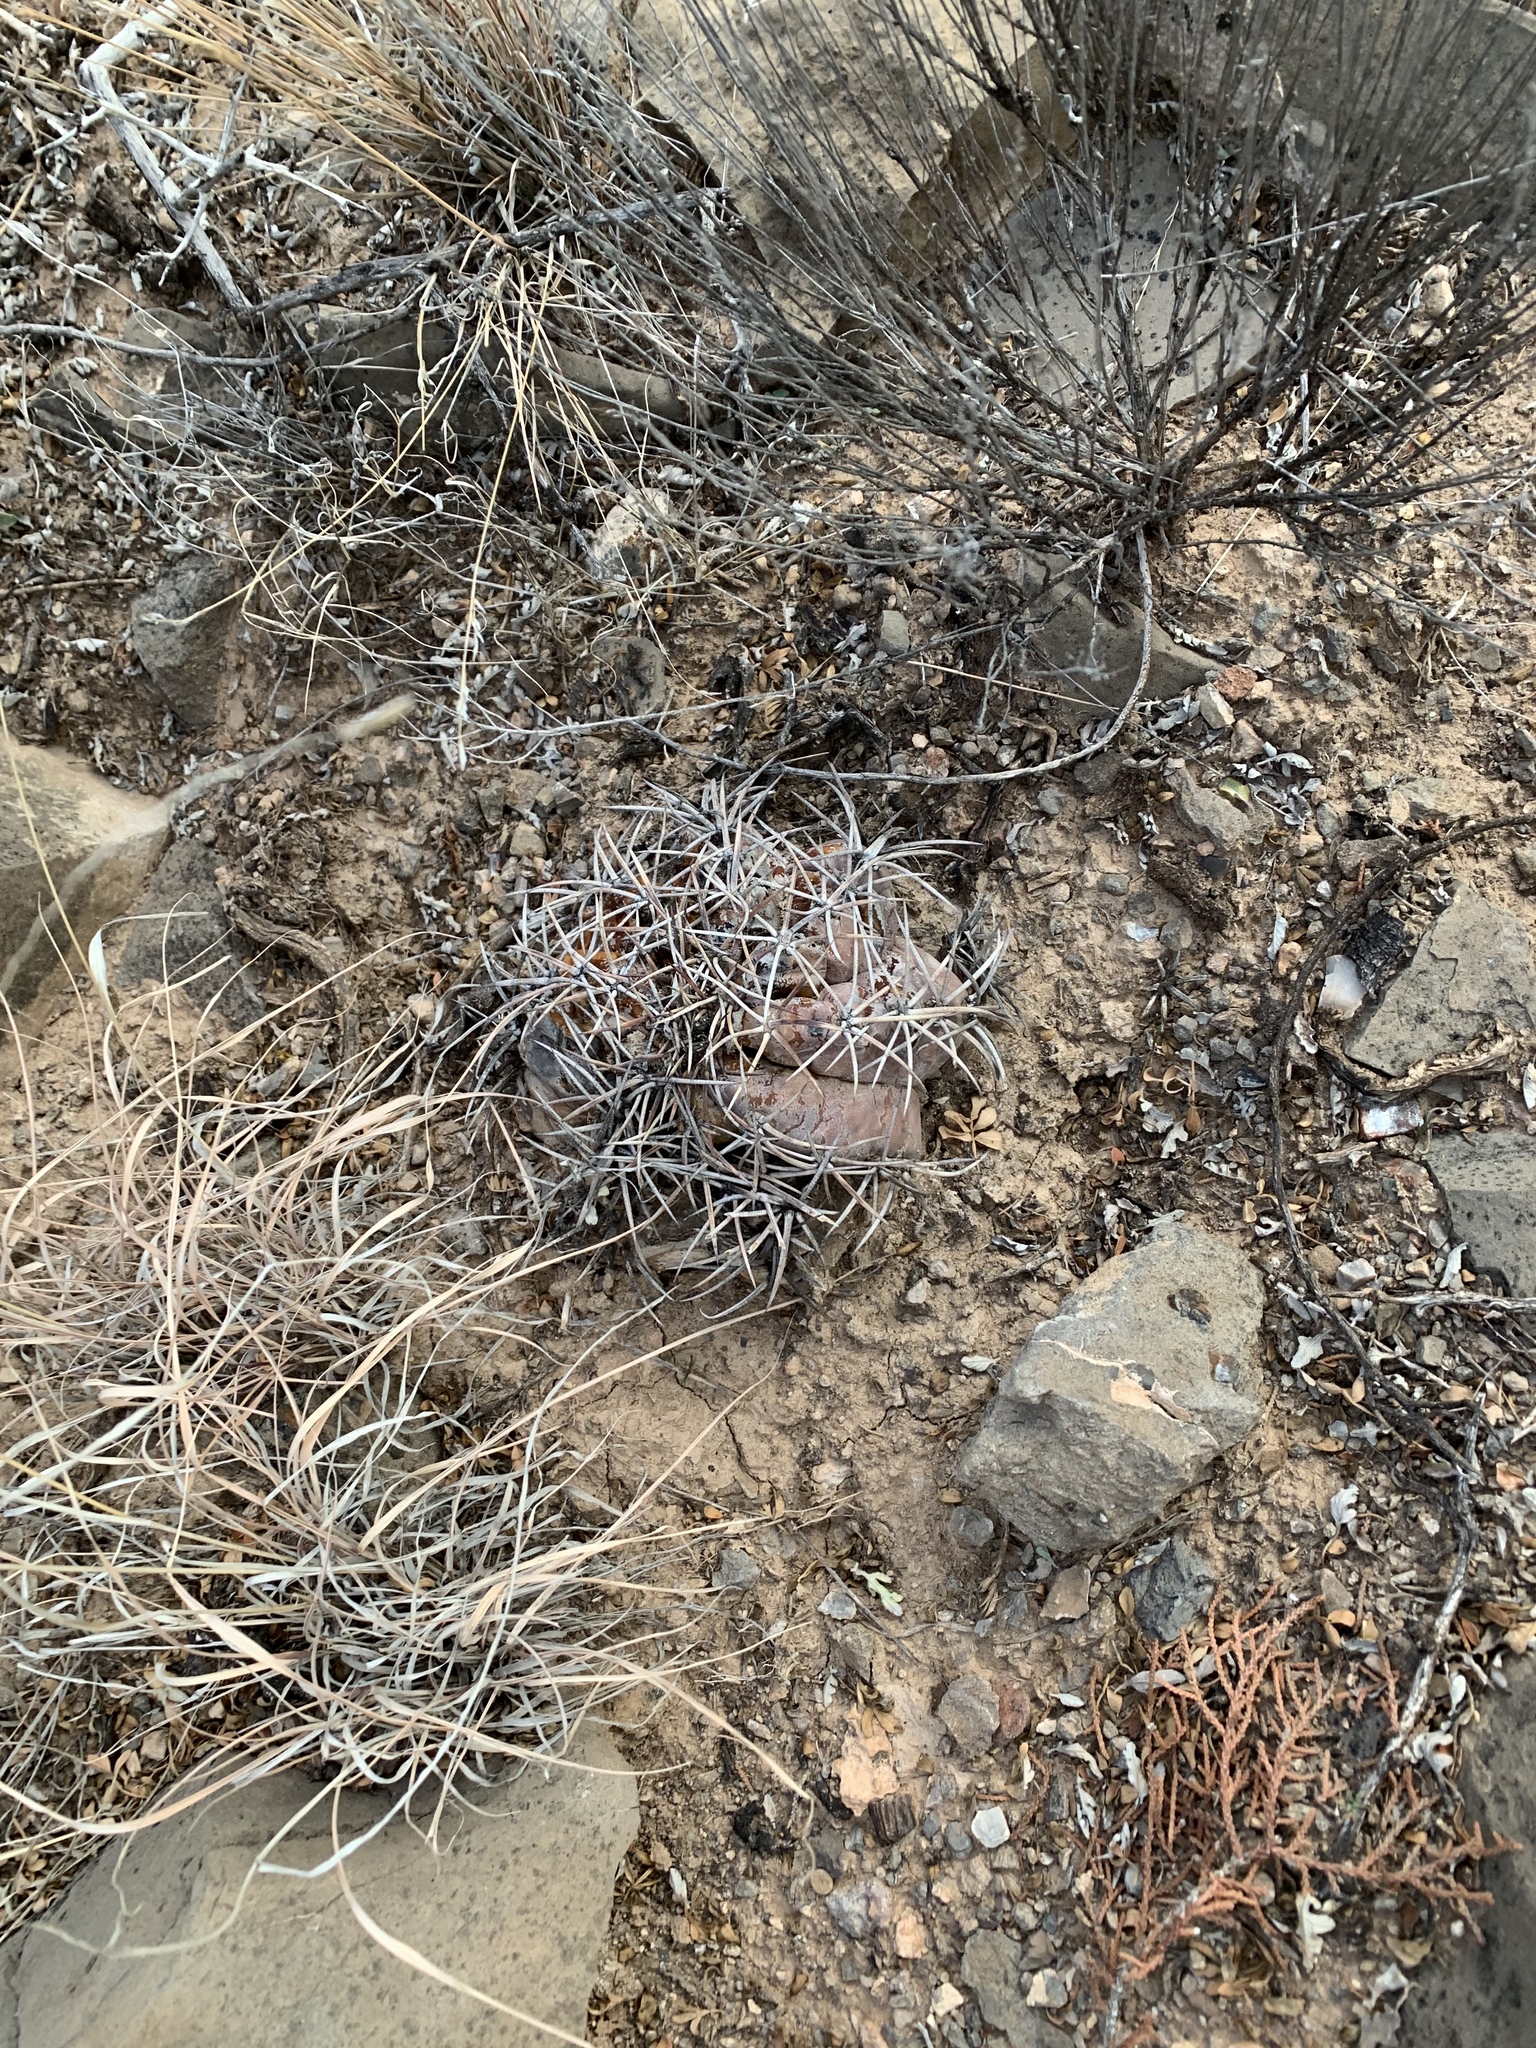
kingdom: Plantae
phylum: Tracheophyta
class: Magnoliopsida
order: Caryophyllales
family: Cactaceae
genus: Echinocactus
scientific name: Echinocactus horizonthalonius
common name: Devilshead
